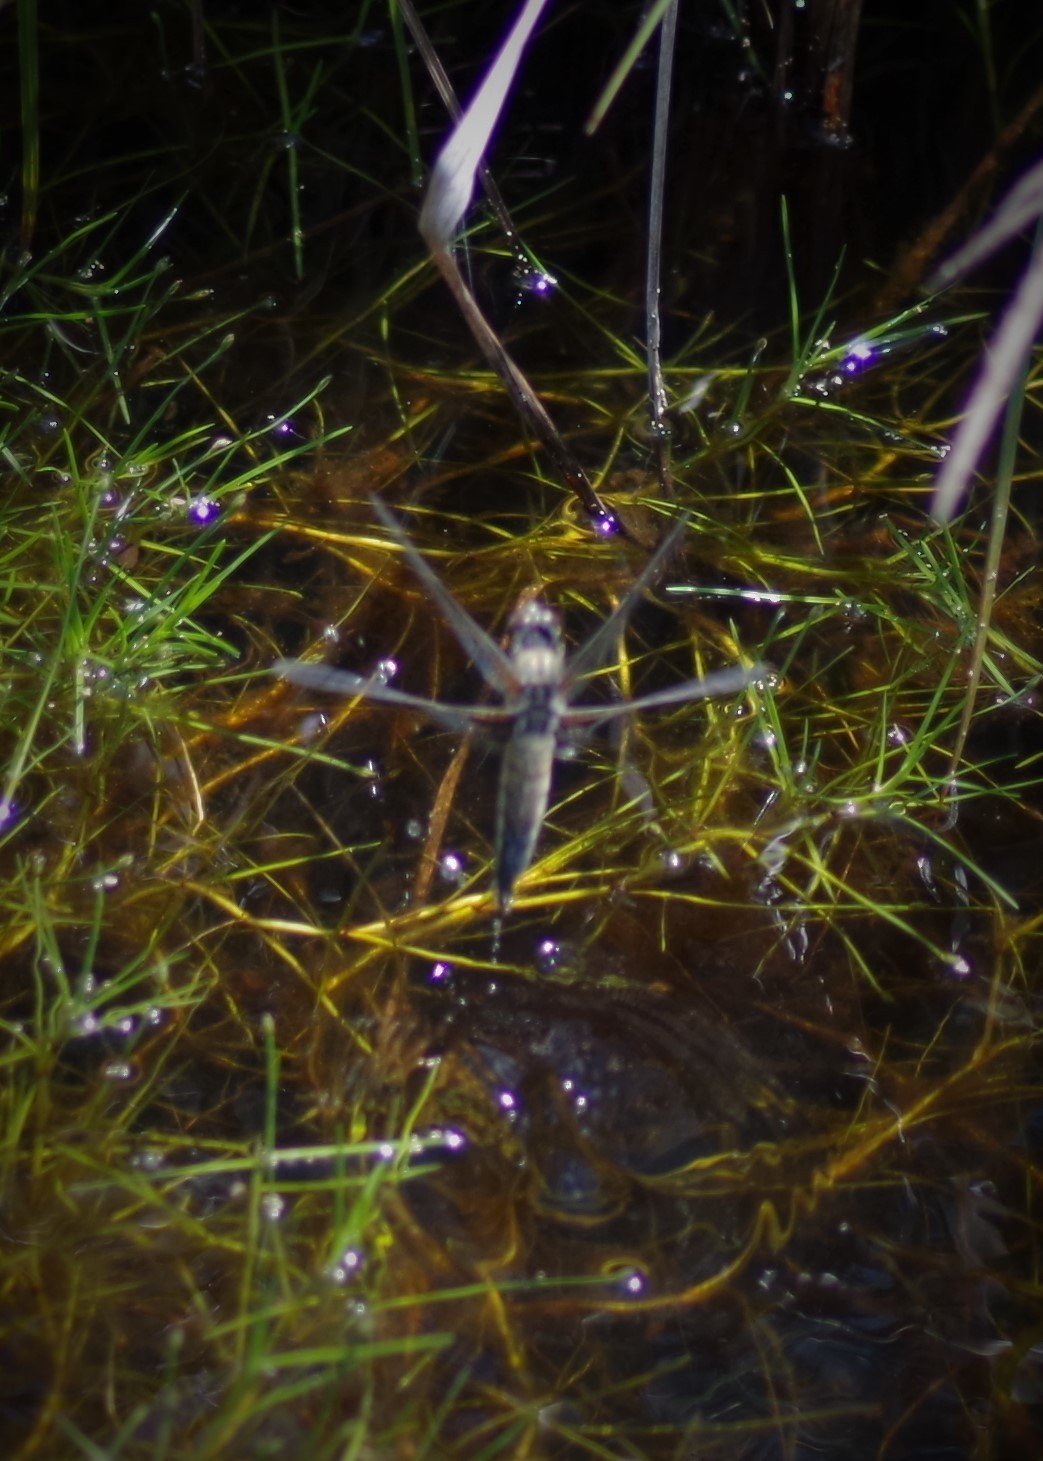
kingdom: Animalia
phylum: Arthropoda
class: Insecta
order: Odonata
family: Libellulidae
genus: Libellula
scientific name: Libellula quadrimaculata
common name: Four-spotted chaser
